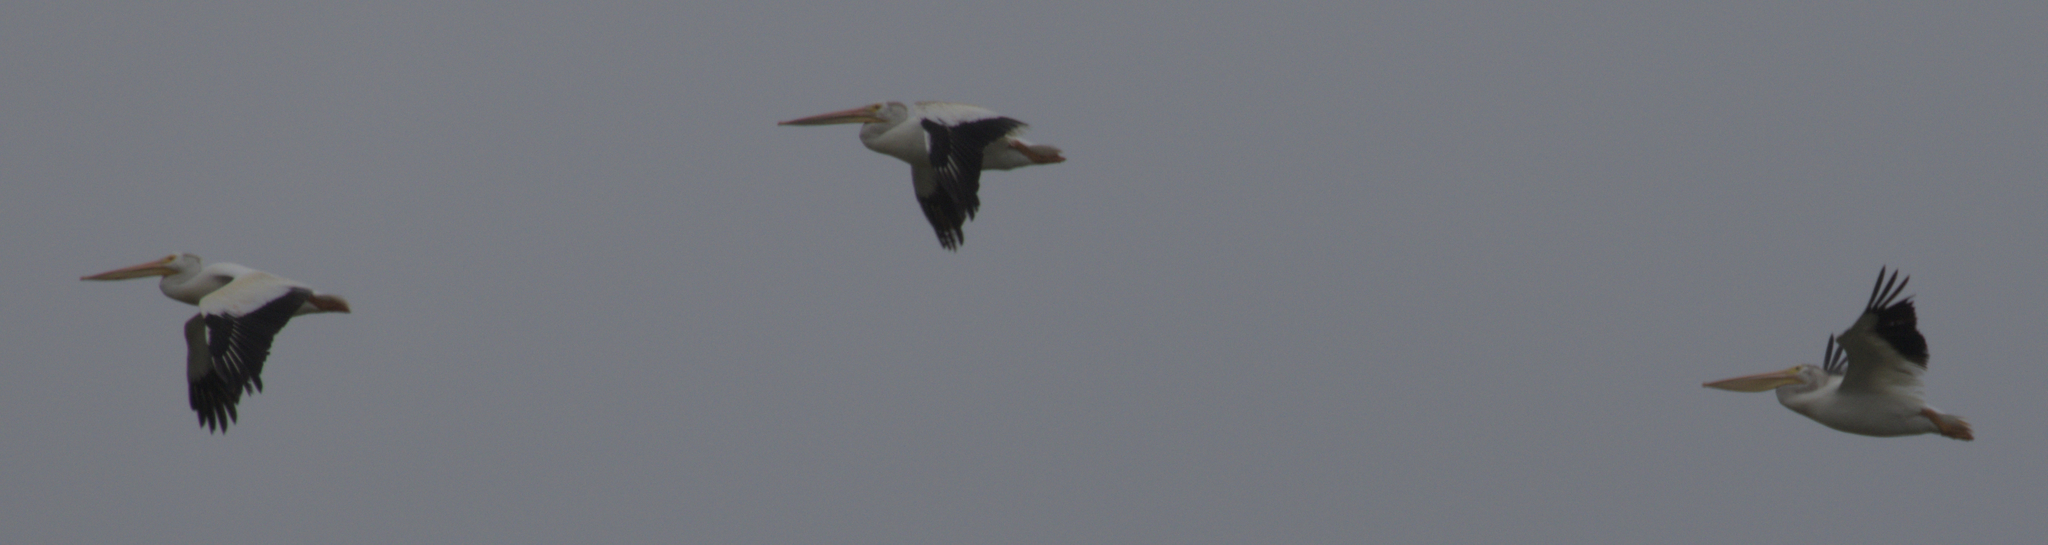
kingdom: Animalia
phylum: Chordata
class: Aves
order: Pelecaniformes
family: Pelecanidae
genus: Pelecanus
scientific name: Pelecanus erythrorhynchos
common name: American white pelican
